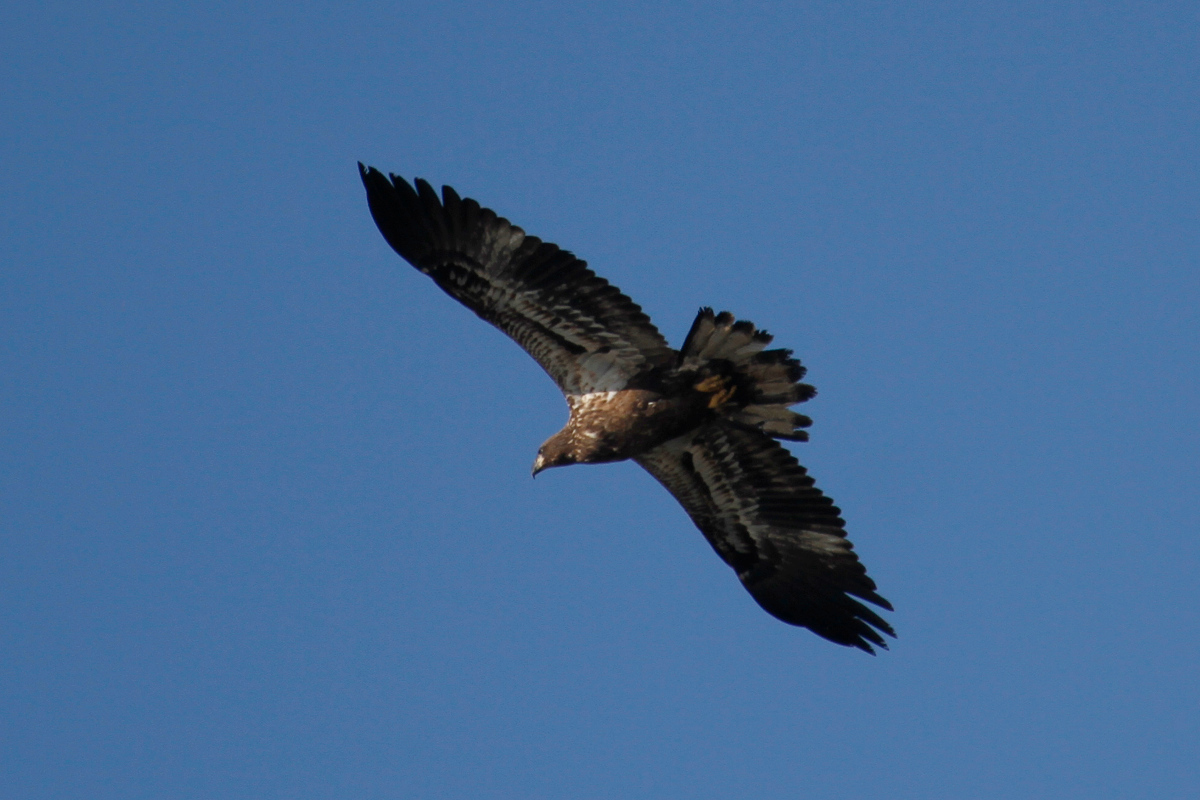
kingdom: Animalia
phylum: Chordata
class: Aves
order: Accipitriformes
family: Accipitridae
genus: Haliaeetus
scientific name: Haliaeetus leucocephalus
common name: Bald eagle
